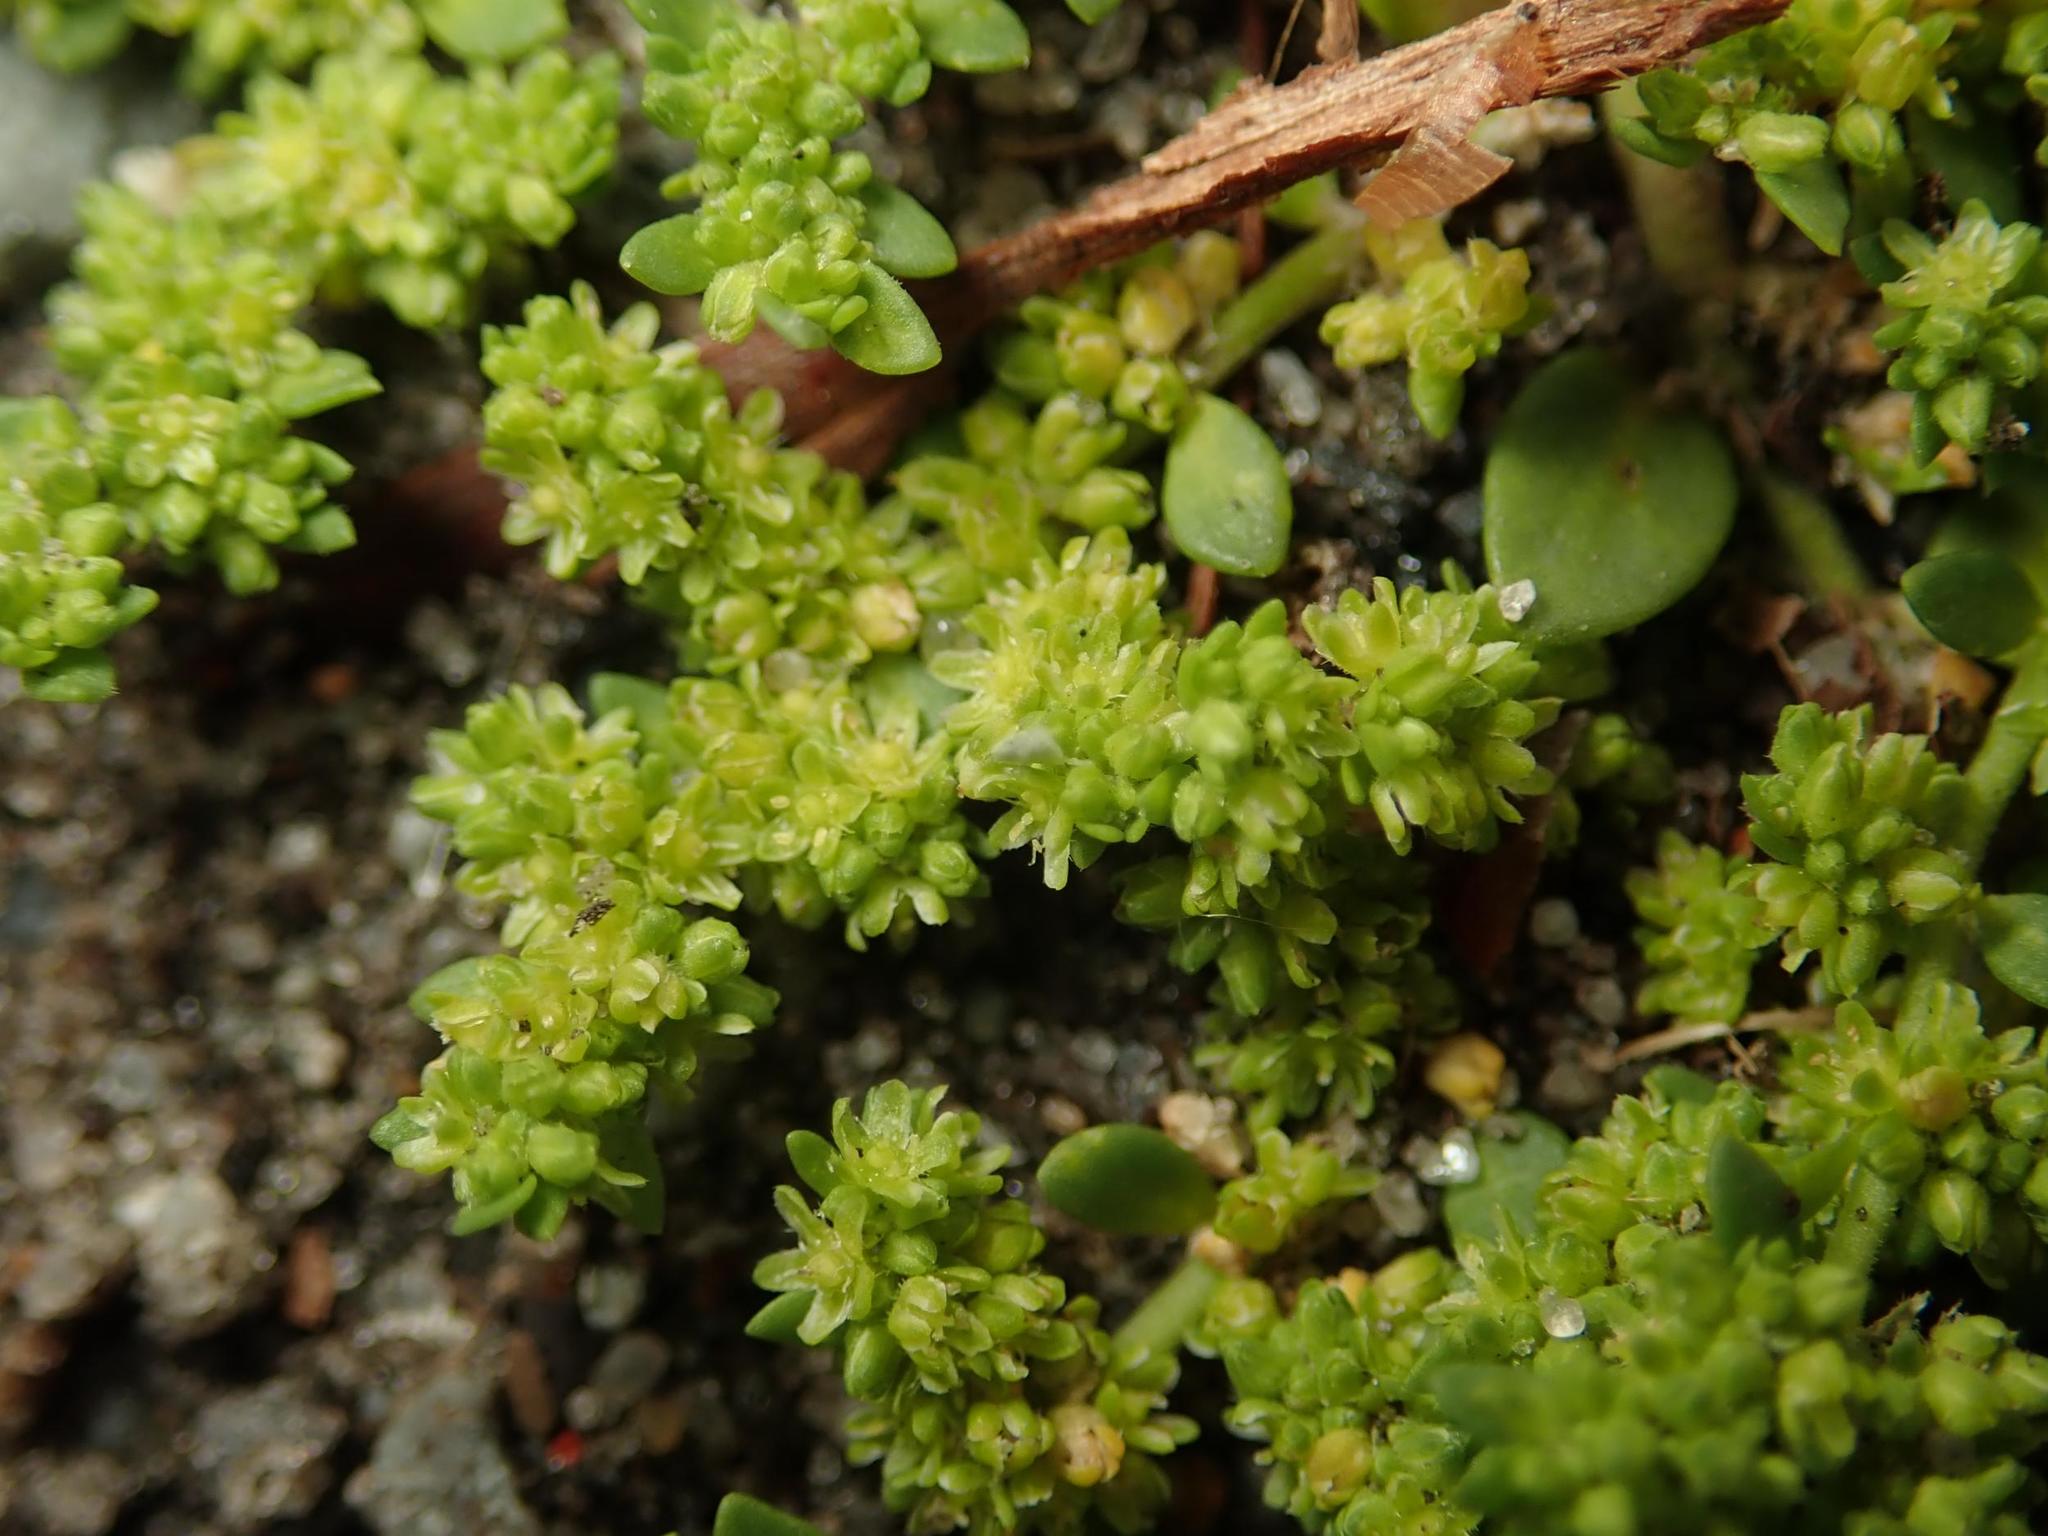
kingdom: Plantae
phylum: Tracheophyta
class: Magnoliopsida
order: Caryophyllales
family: Caryophyllaceae
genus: Herniaria
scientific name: Herniaria glabra
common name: Smooth rupturewort
